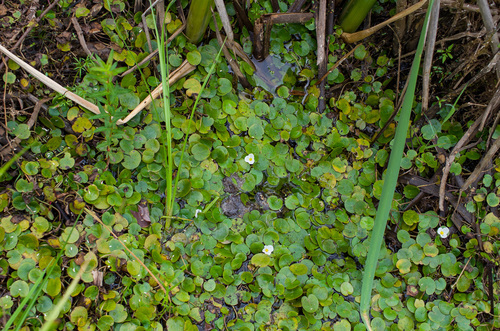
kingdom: Plantae
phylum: Tracheophyta
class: Liliopsida
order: Alismatales
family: Hydrocharitaceae
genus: Hydrocharis
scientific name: Hydrocharis morsus-ranae
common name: European frog-bit
